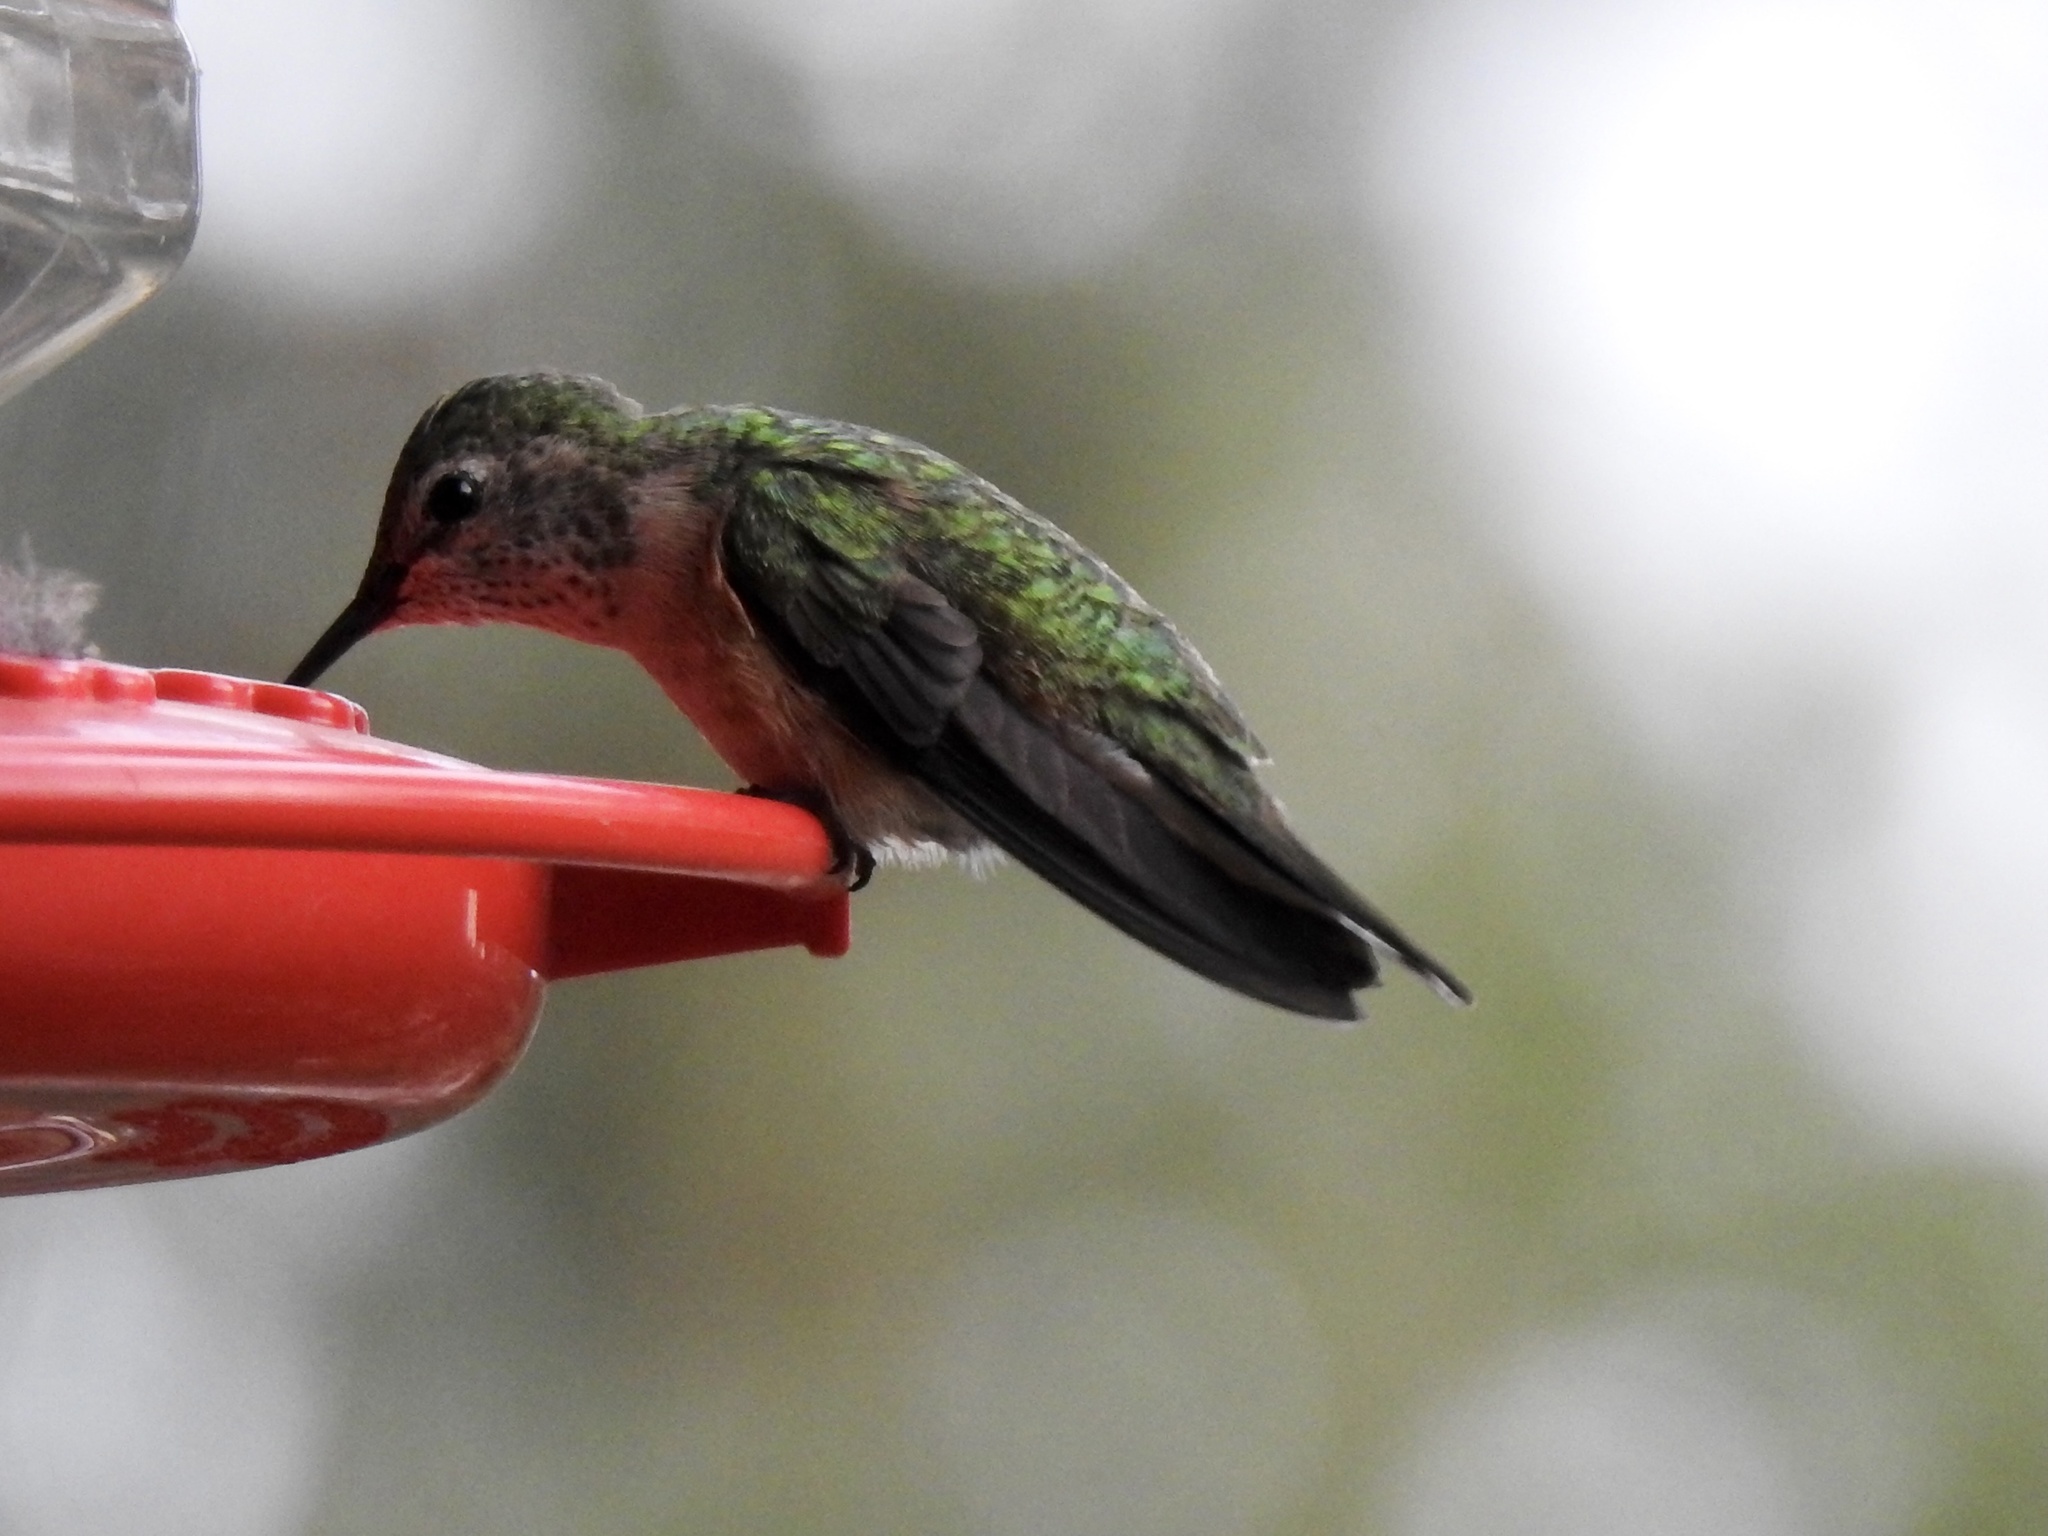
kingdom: Animalia
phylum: Chordata
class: Aves
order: Apodiformes
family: Trochilidae
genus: Selasphorus
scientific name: Selasphorus platycercus
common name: Broad-tailed hummingbird
